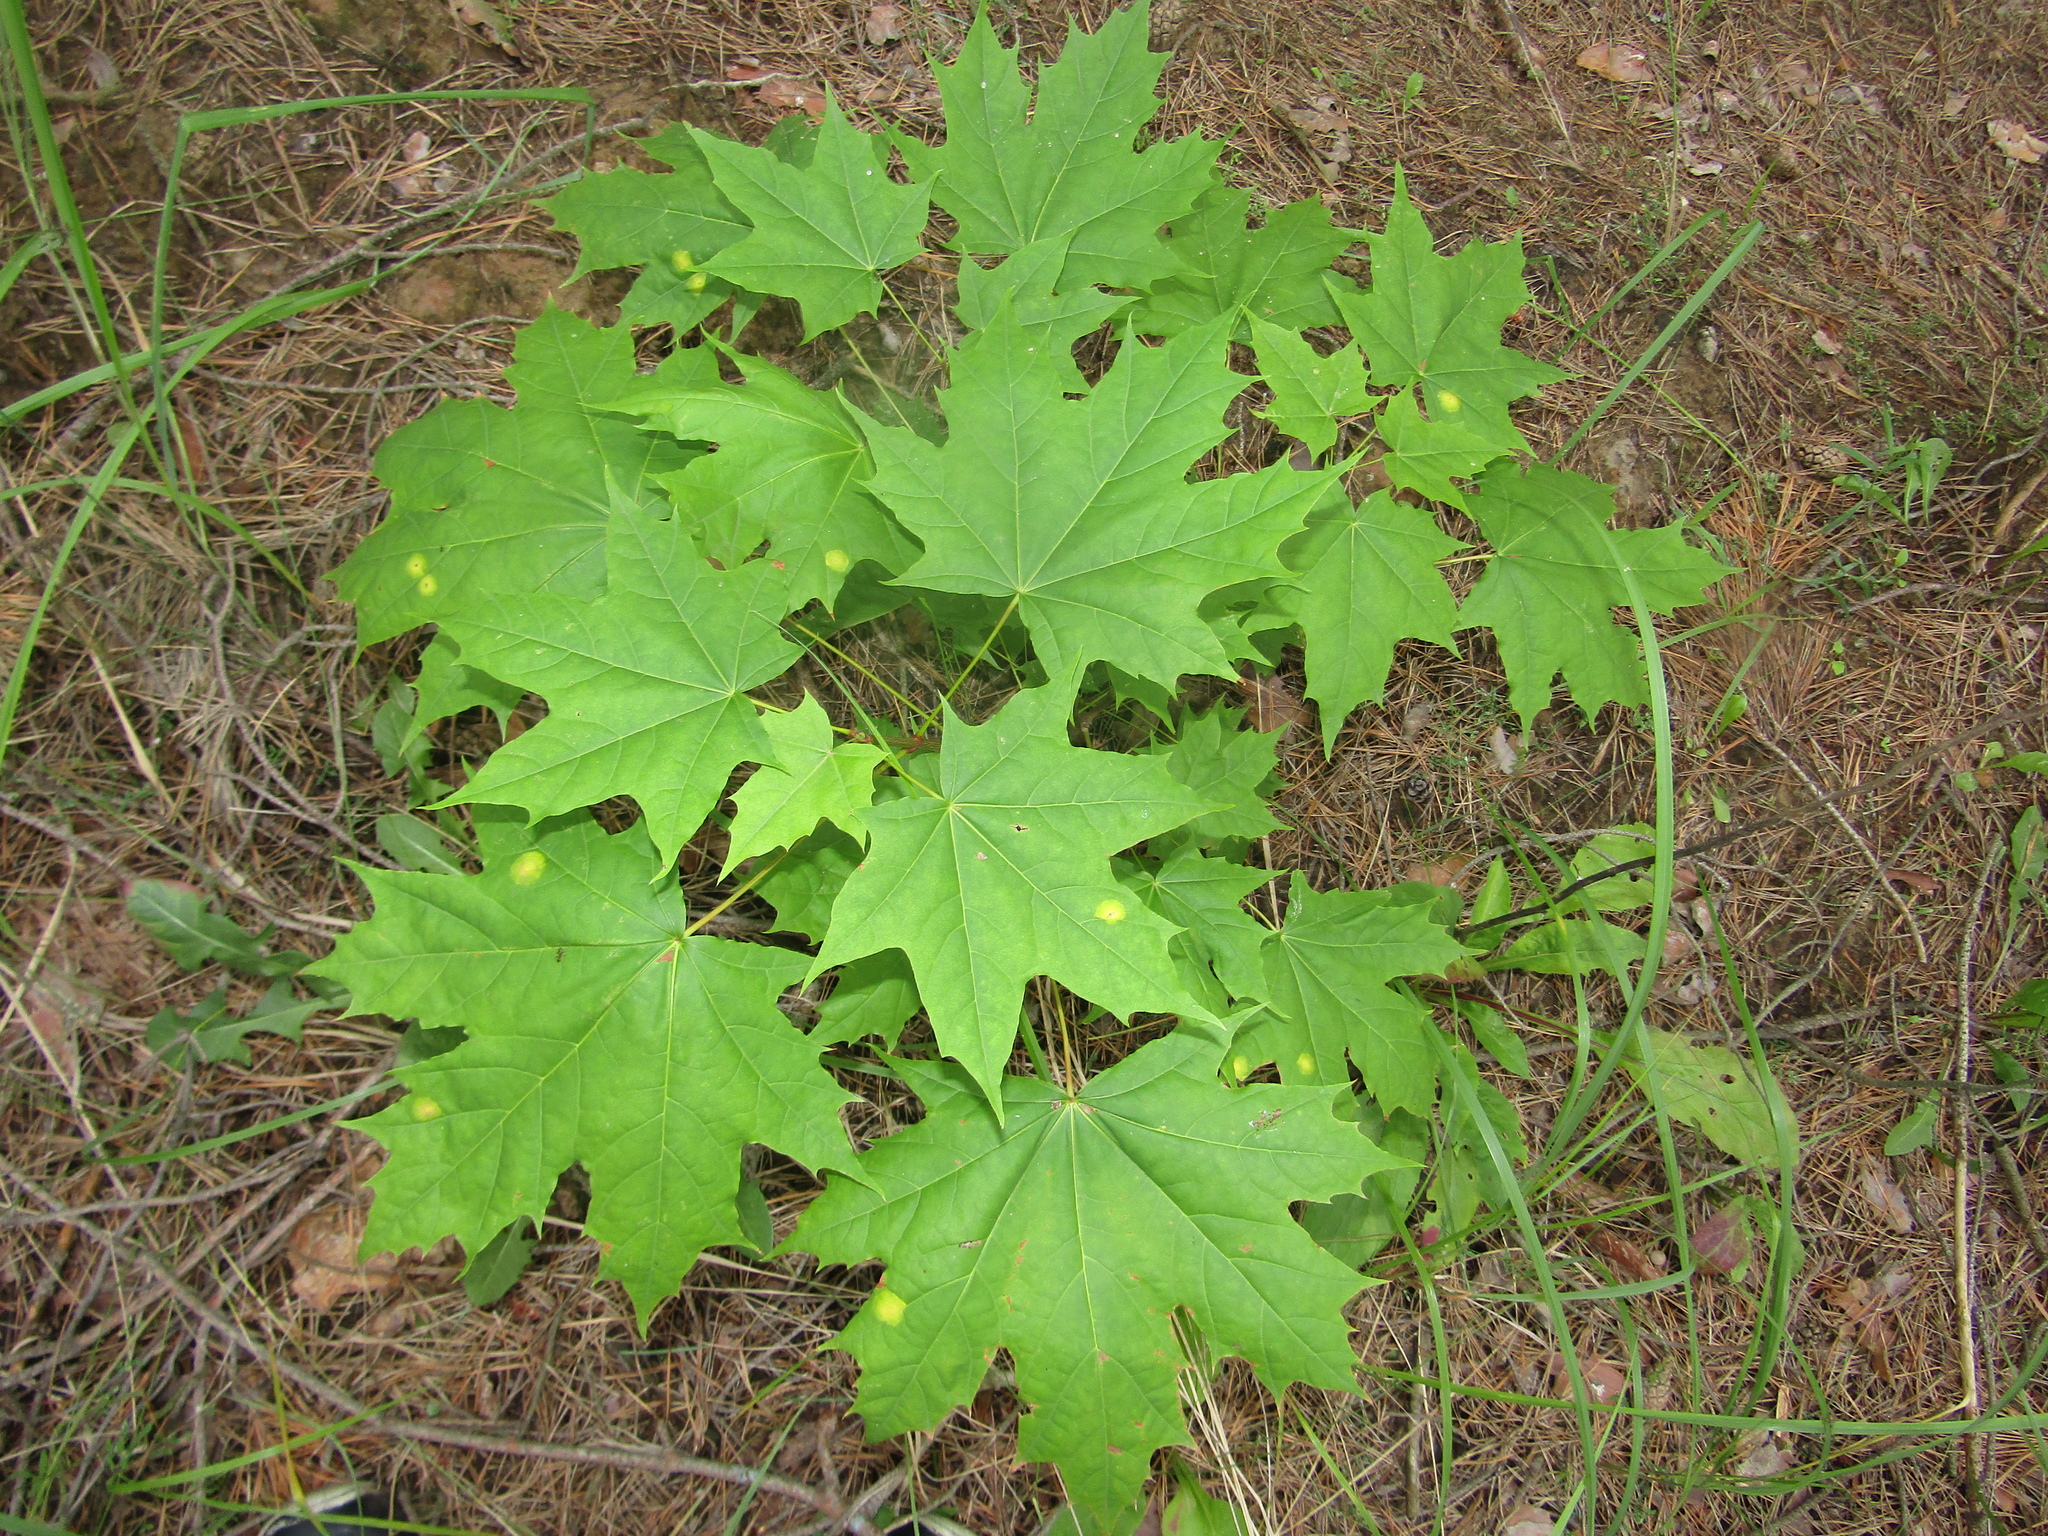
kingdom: Plantae
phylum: Tracheophyta
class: Magnoliopsida
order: Sapindales
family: Sapindaceae
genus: Acer
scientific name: Acer platanoides
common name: Norway maple
